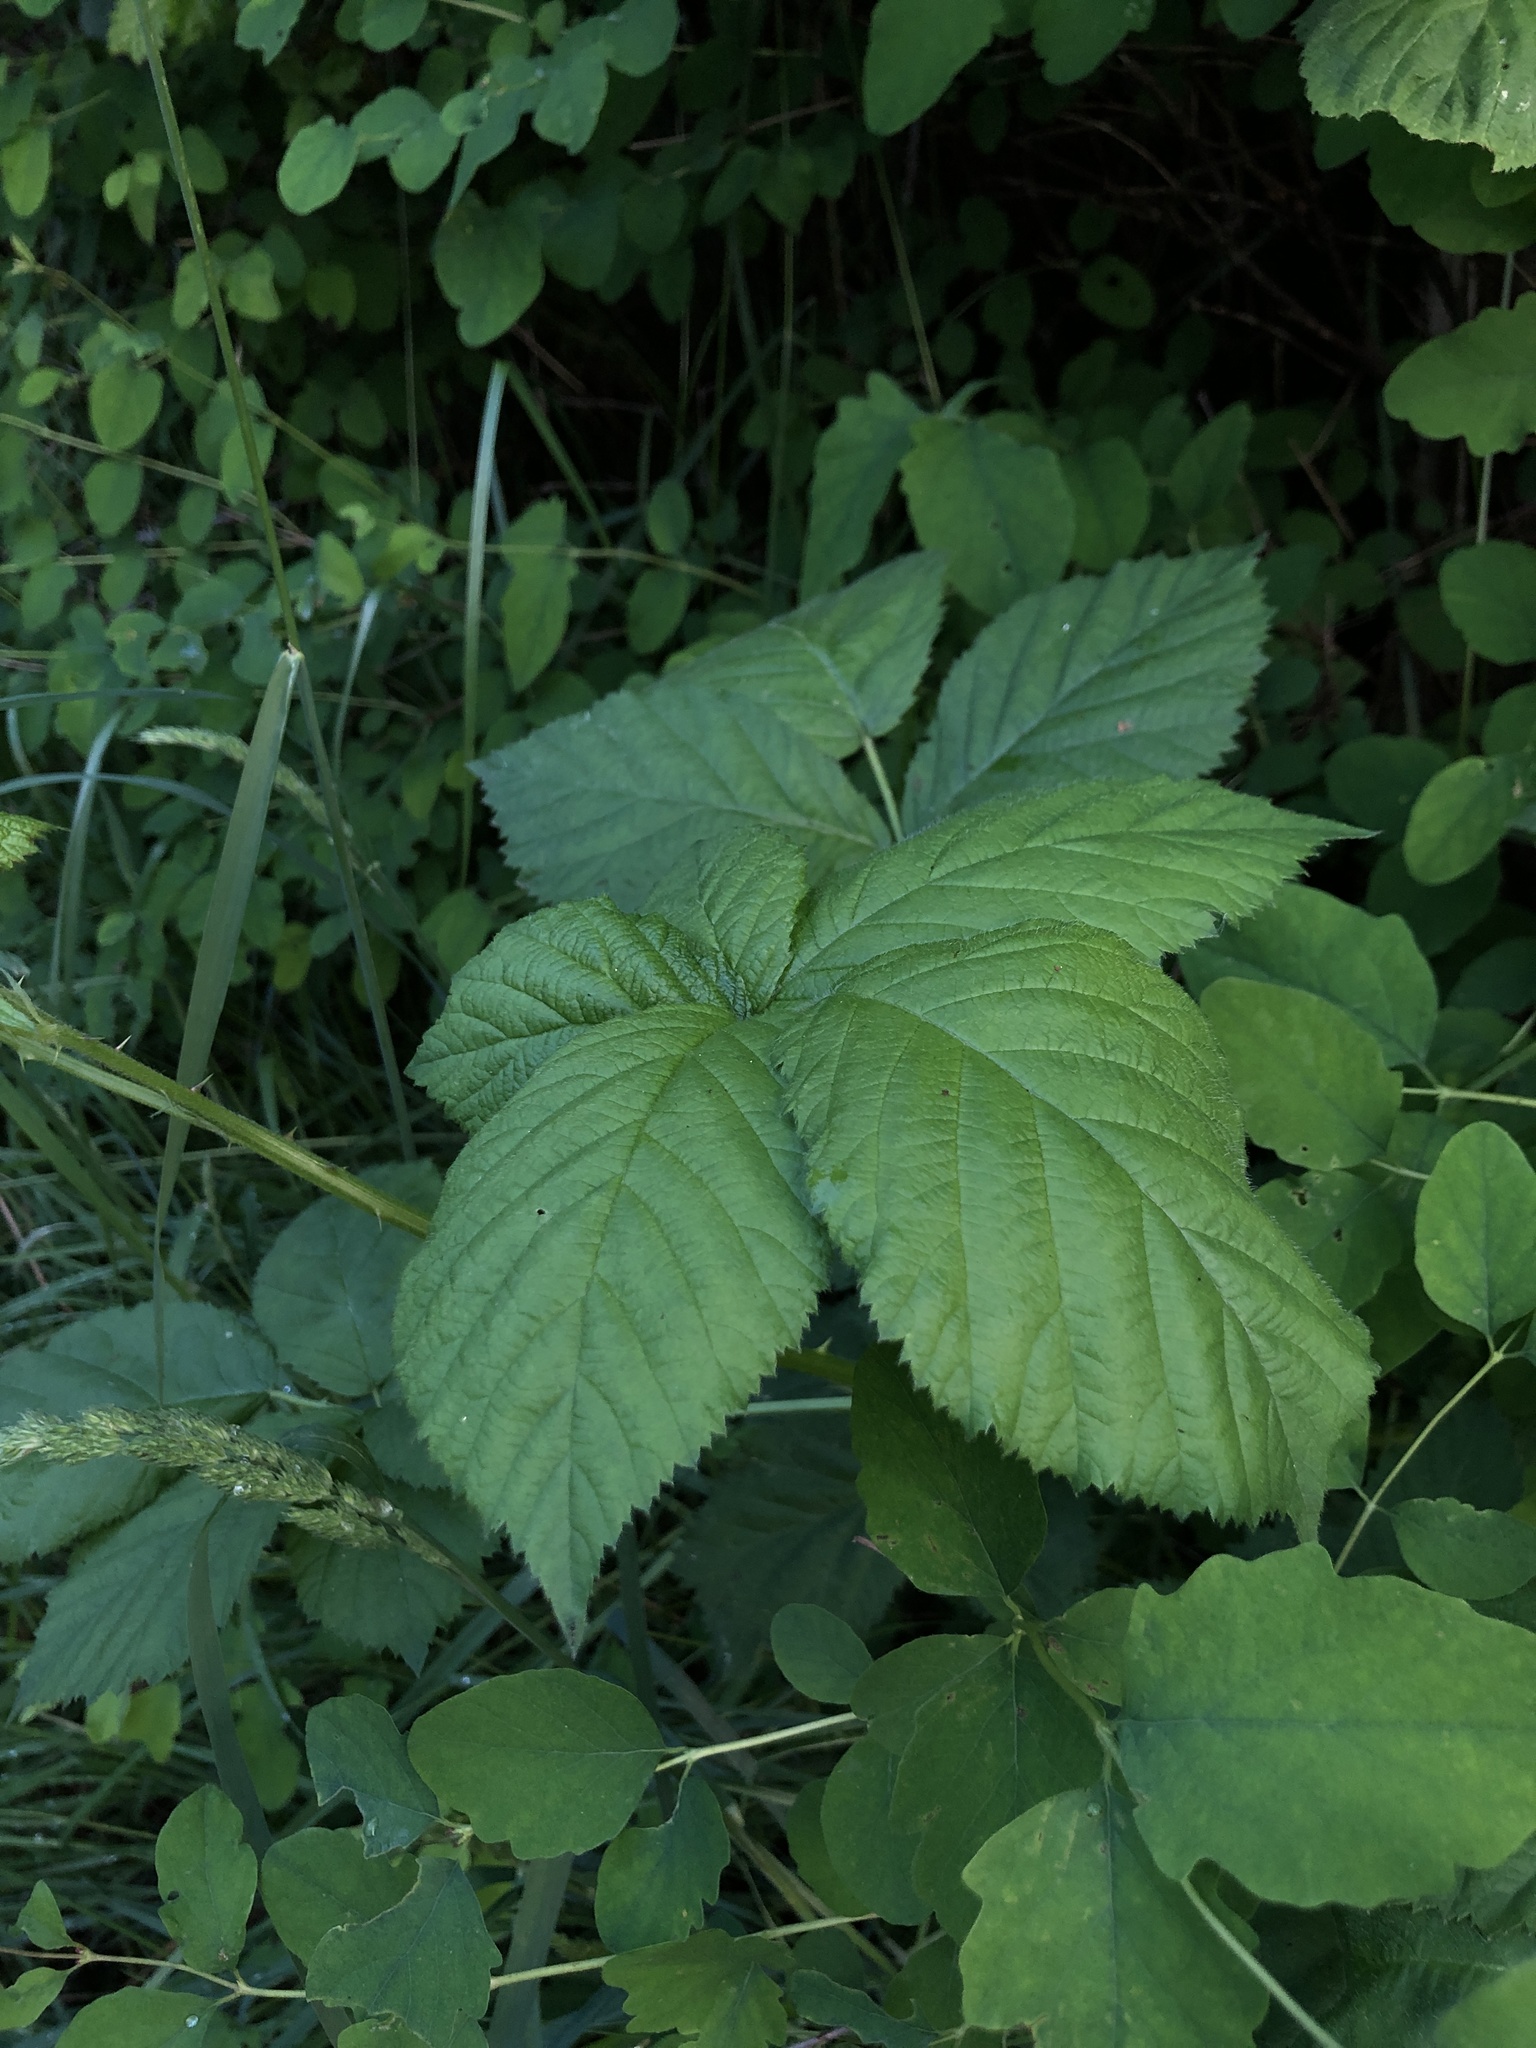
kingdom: Plantae
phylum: Tracheophyta
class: Magnoliopsida
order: Rosales
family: Rosaceae
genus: Rubus
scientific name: Rubus bifrons
